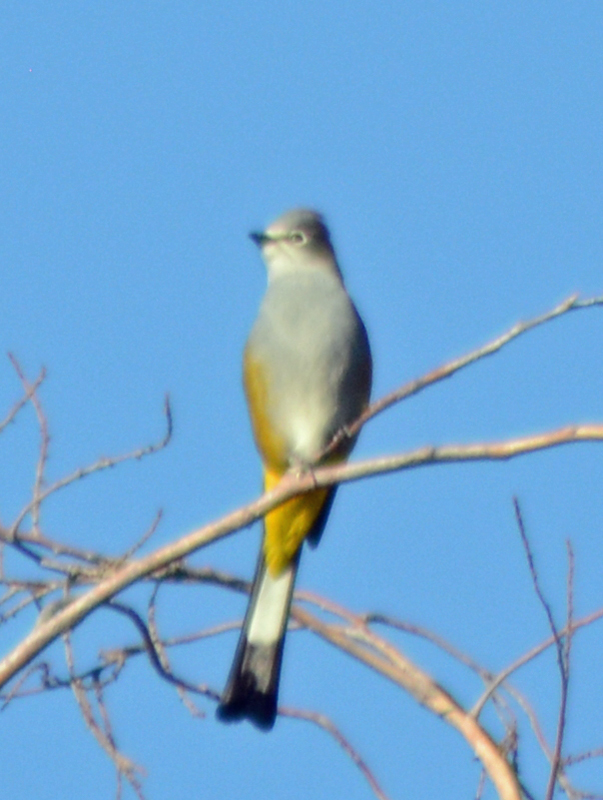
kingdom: Animalia
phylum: Chordata
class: Aves
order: Passeriformes
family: Ptilogonatidae
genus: Ptilogonys
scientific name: Ptilogonys cinereus
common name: Gray silky-flycatcher
